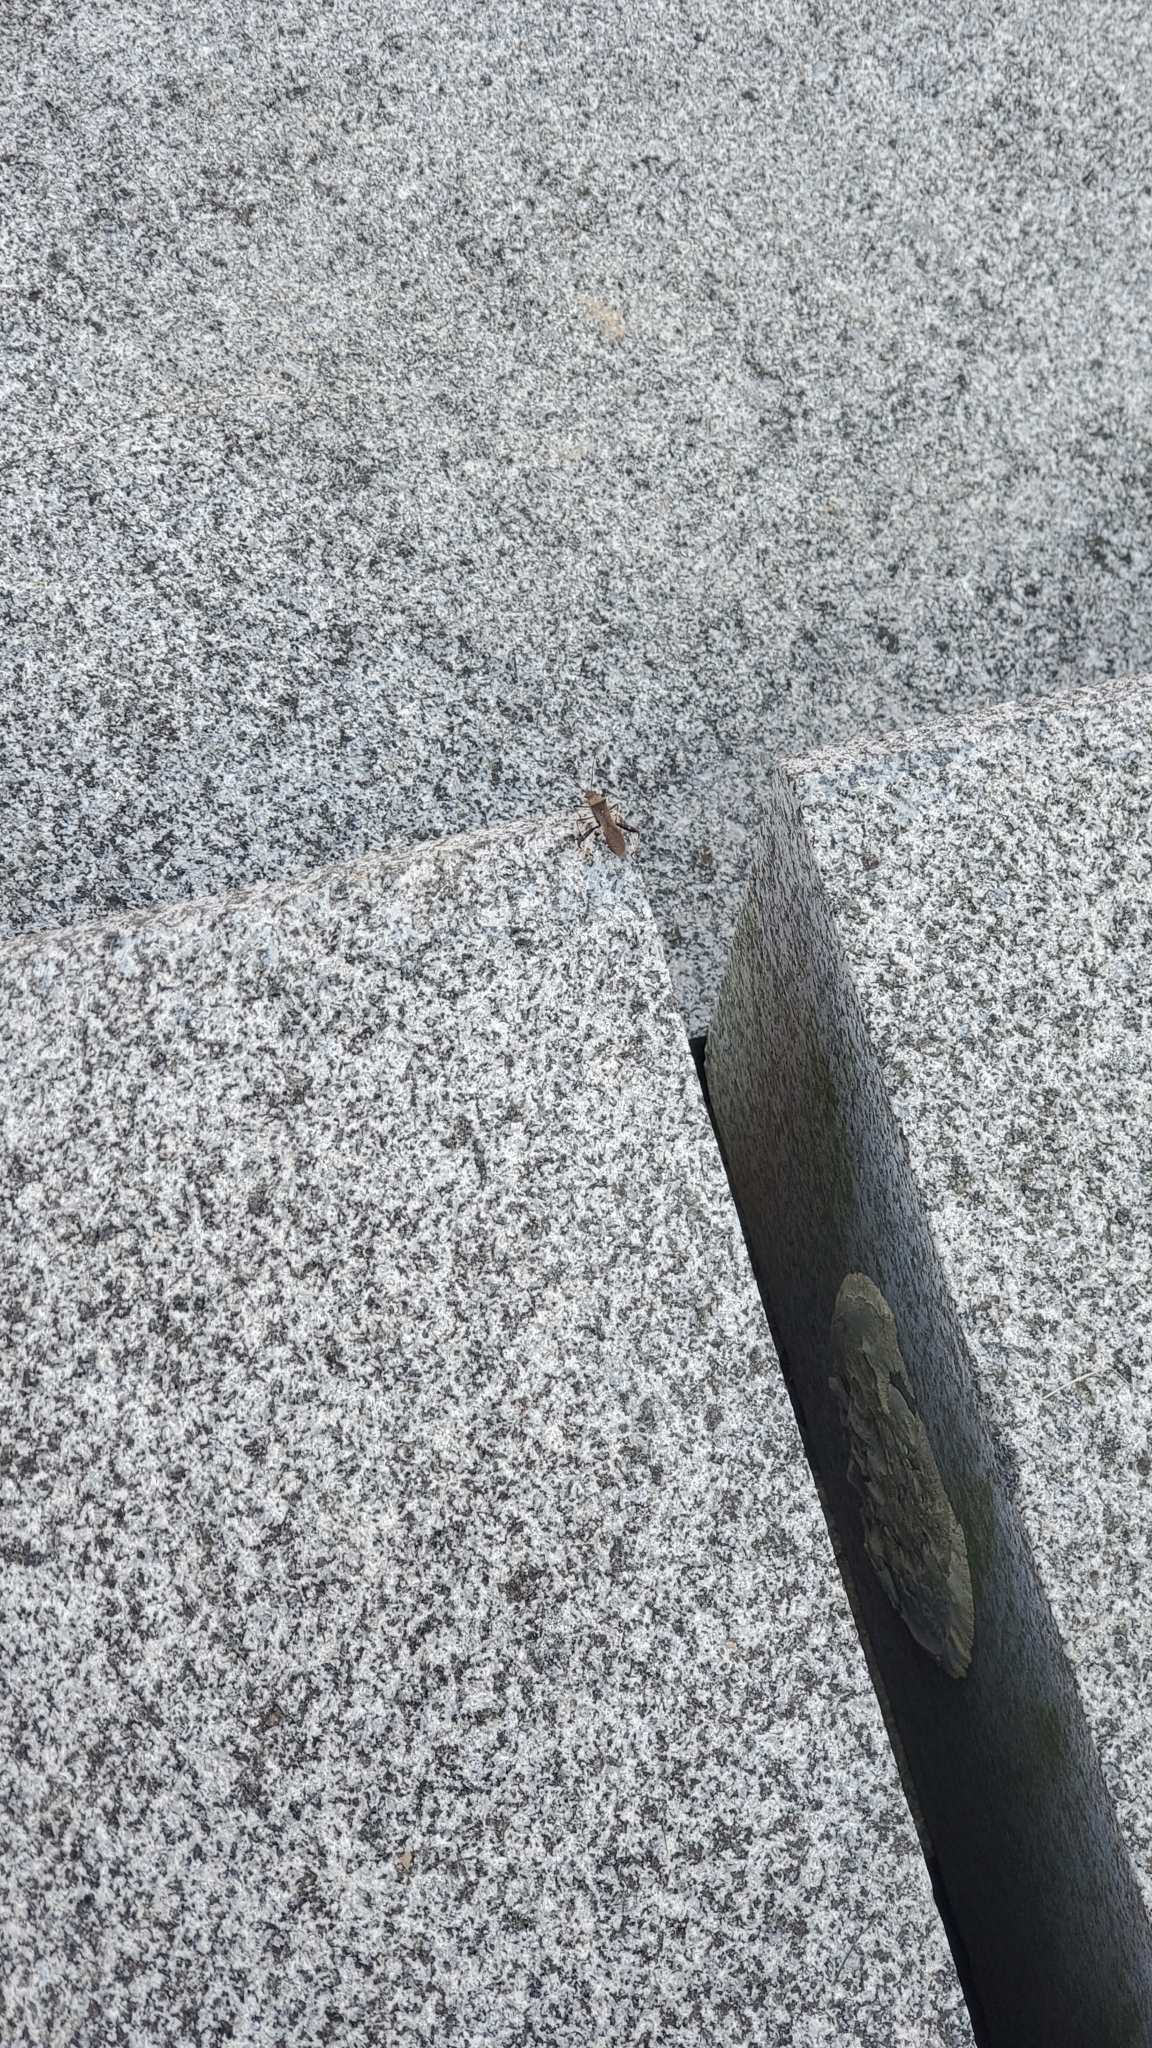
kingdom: Animalia
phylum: Arthropoda
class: Insecta
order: Hemiptera
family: Alydidae
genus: Riptortus
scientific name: Riptortus pedestris
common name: Bean bug
